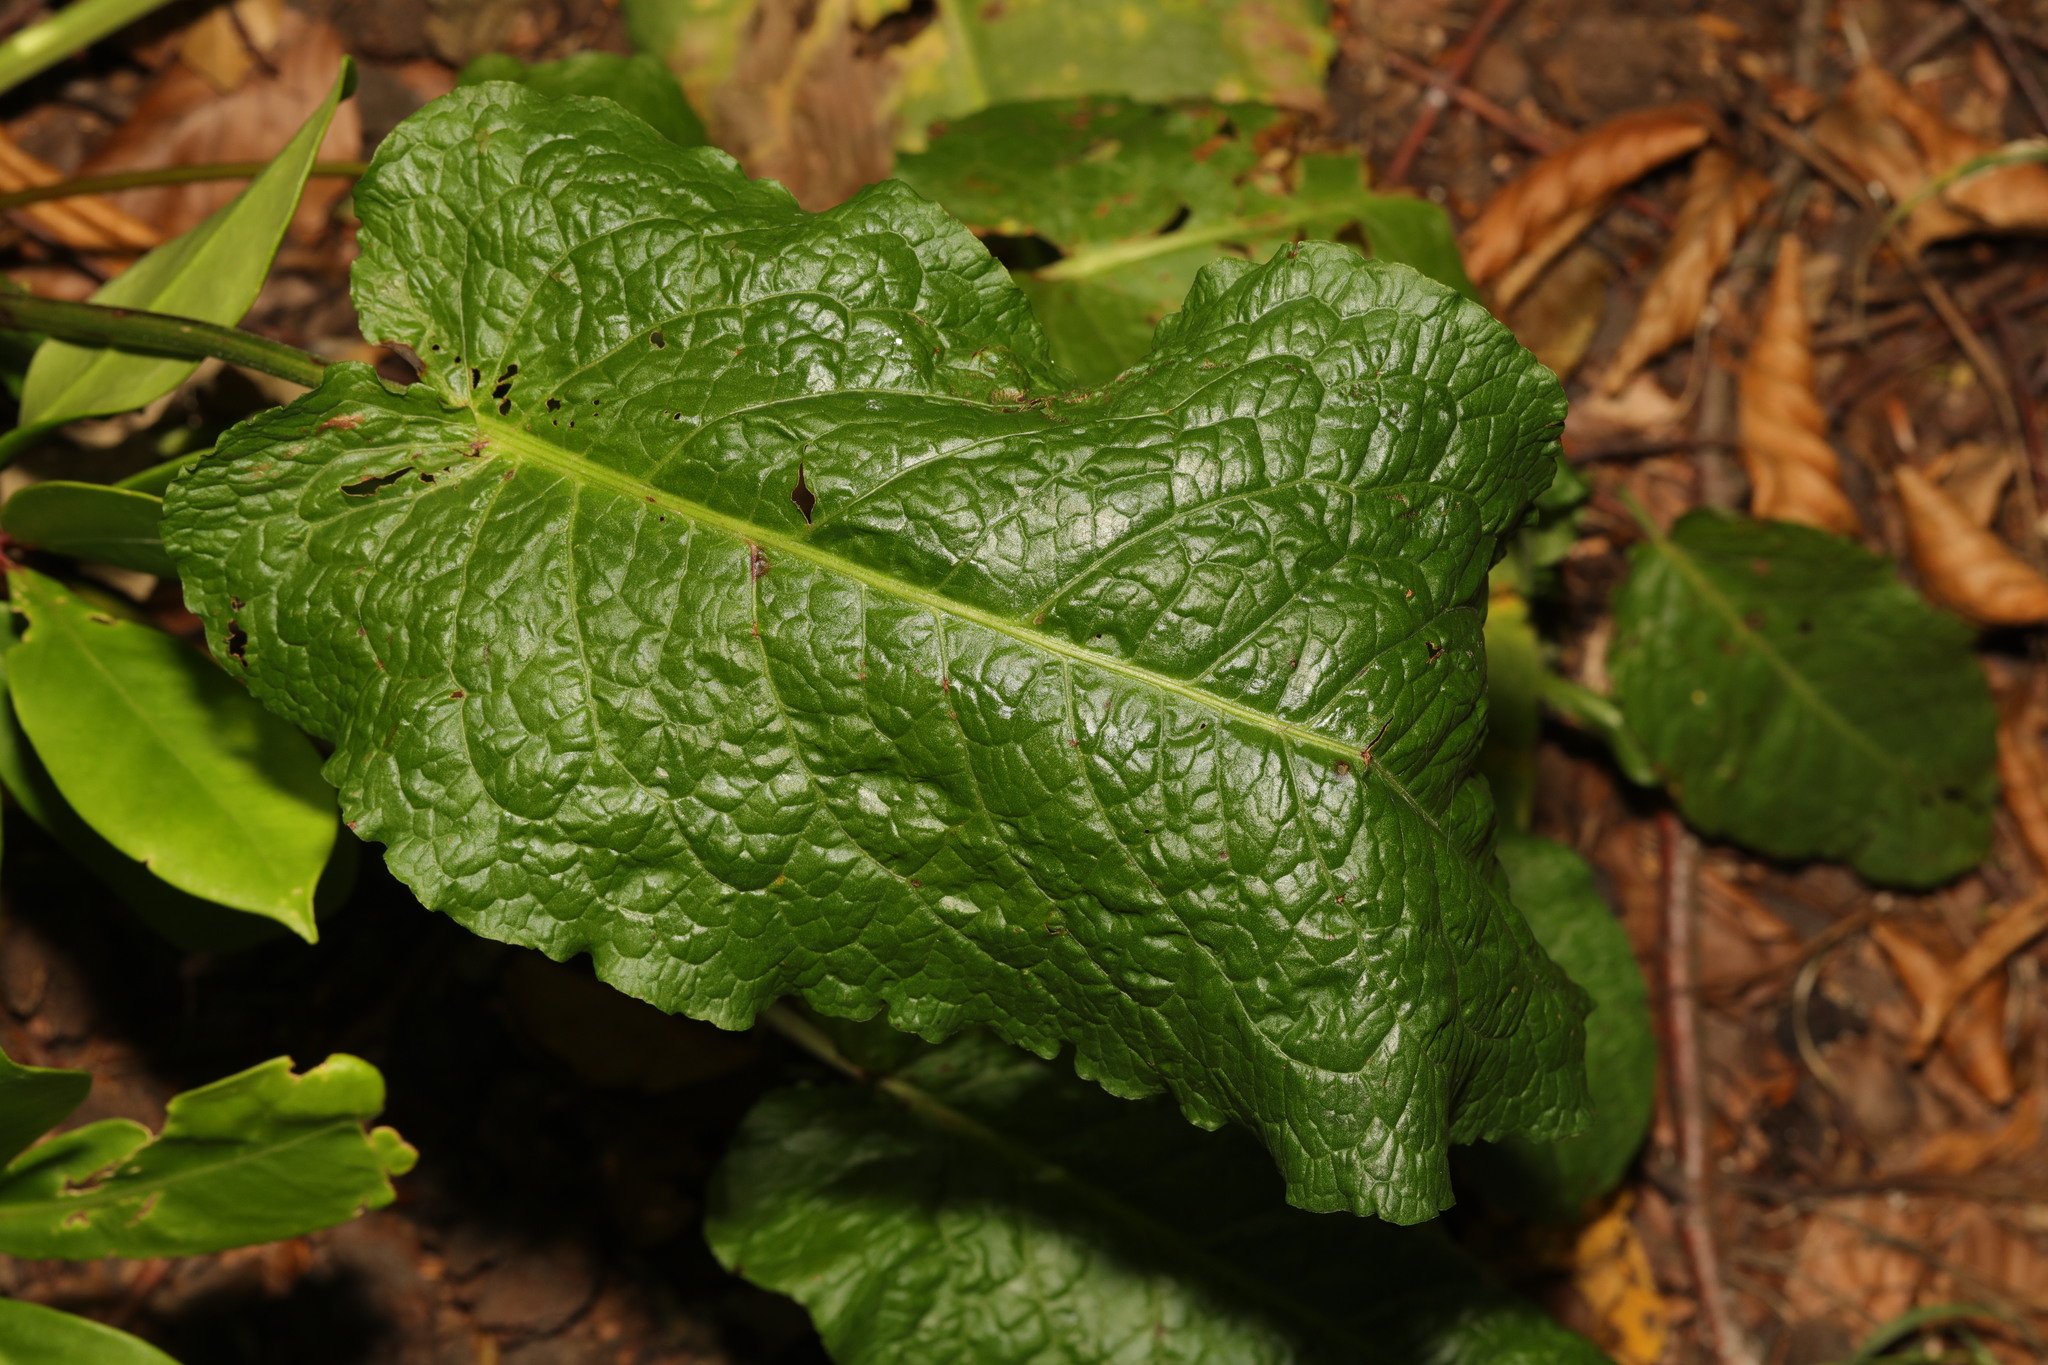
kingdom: Plantae
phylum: Tracheophyta
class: Magnoliopsida
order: Caryophyllales
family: Polygonaceae
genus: Rumex
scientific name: Rumex obtusifolius
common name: Bitter dock
